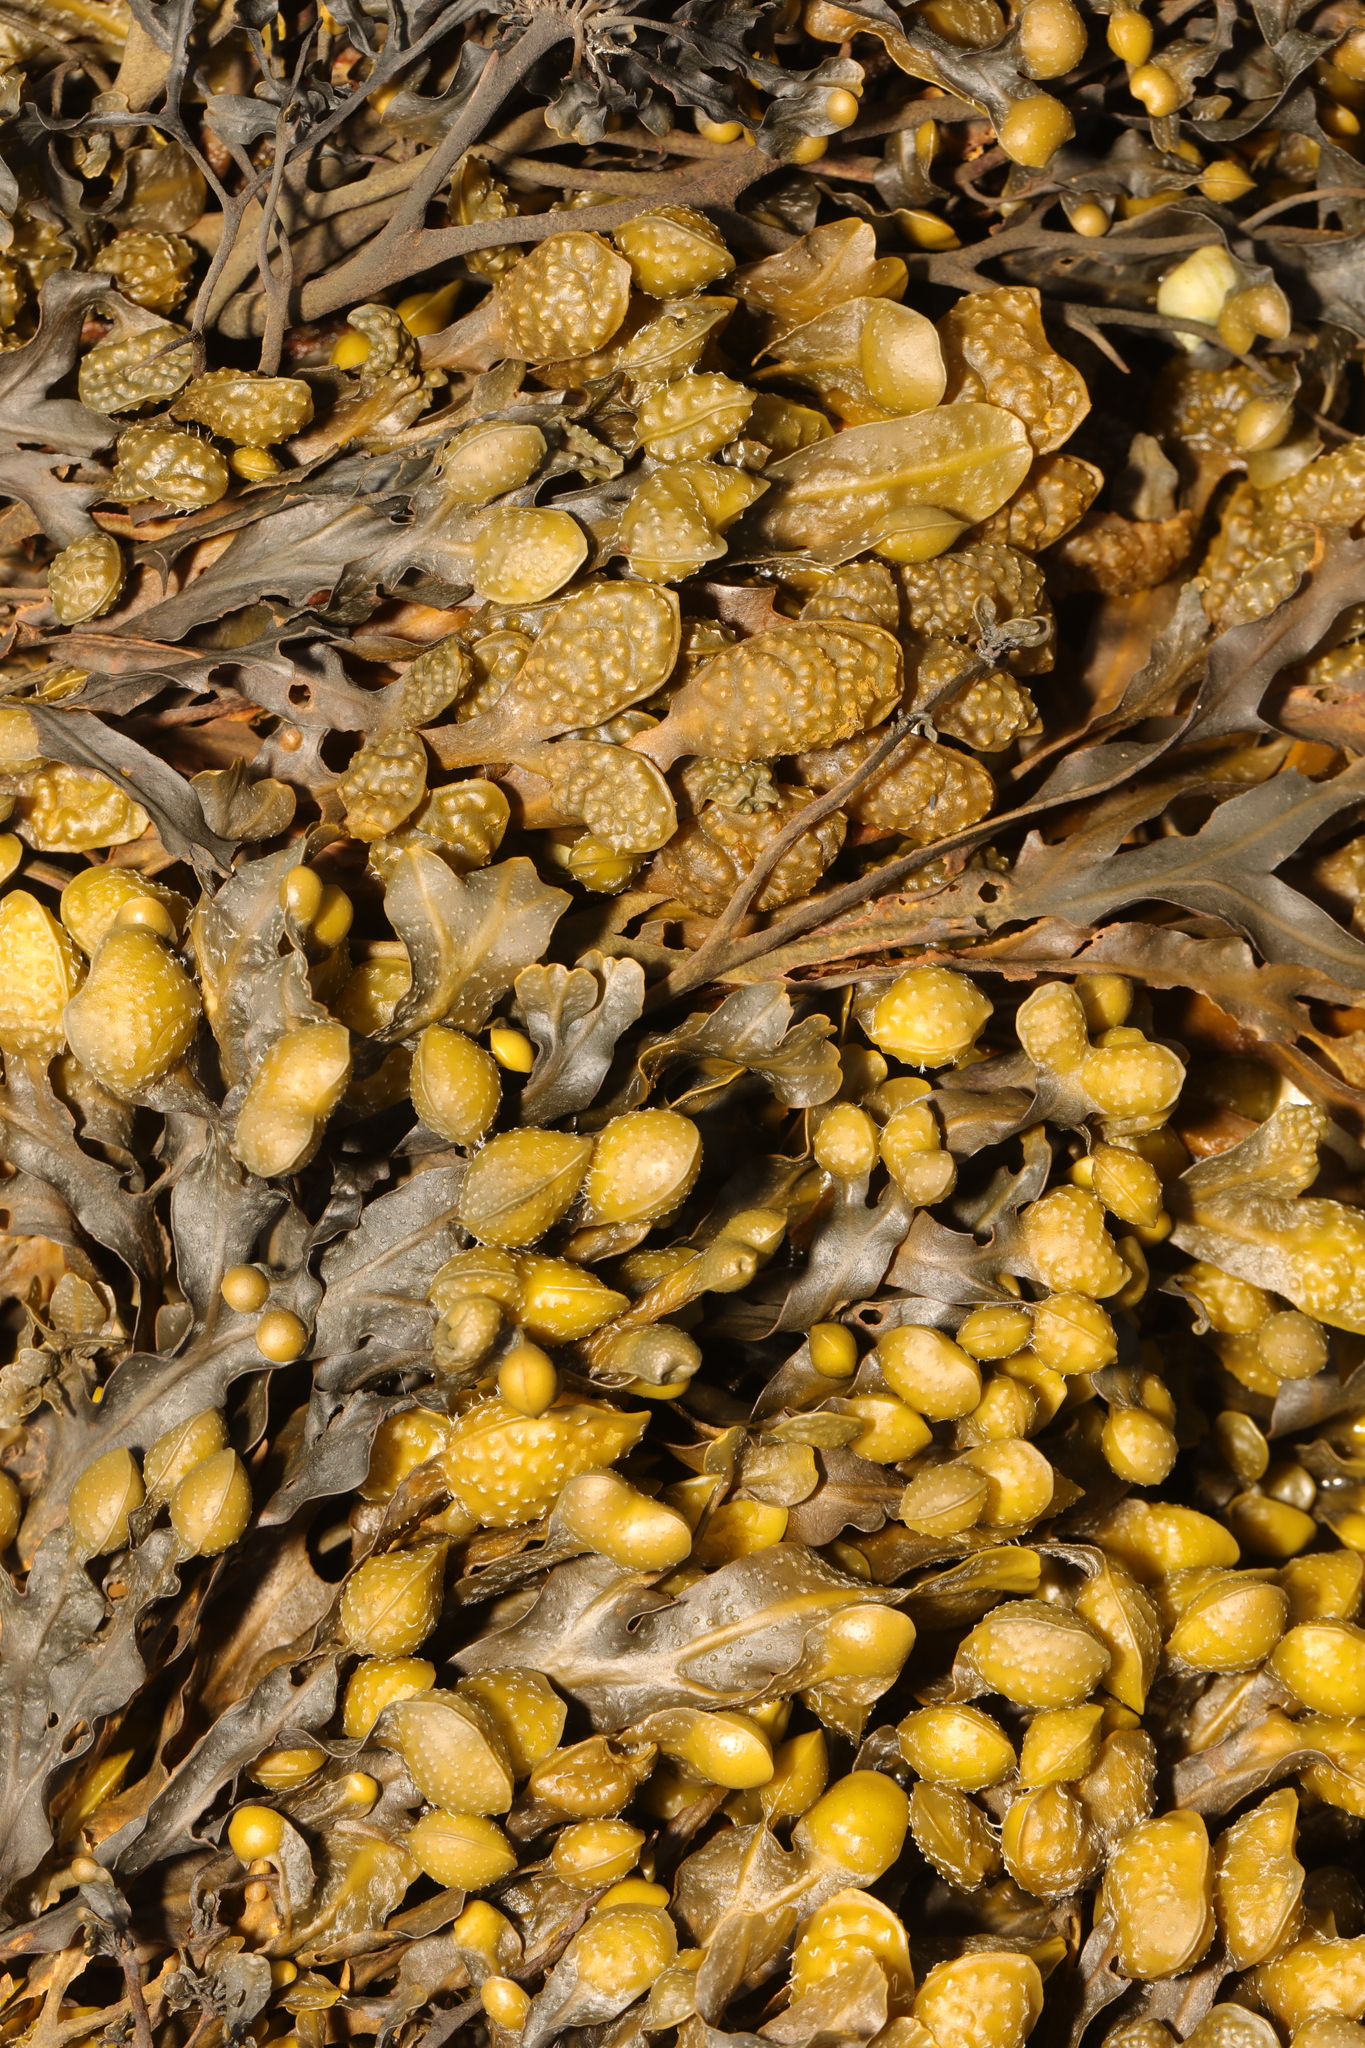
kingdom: Chromista
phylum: Ochrophyta
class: Phaeophyceae
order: Fucales
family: Fucaceae
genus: Fucus
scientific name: Fucus spiralis
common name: Spiral wrack
